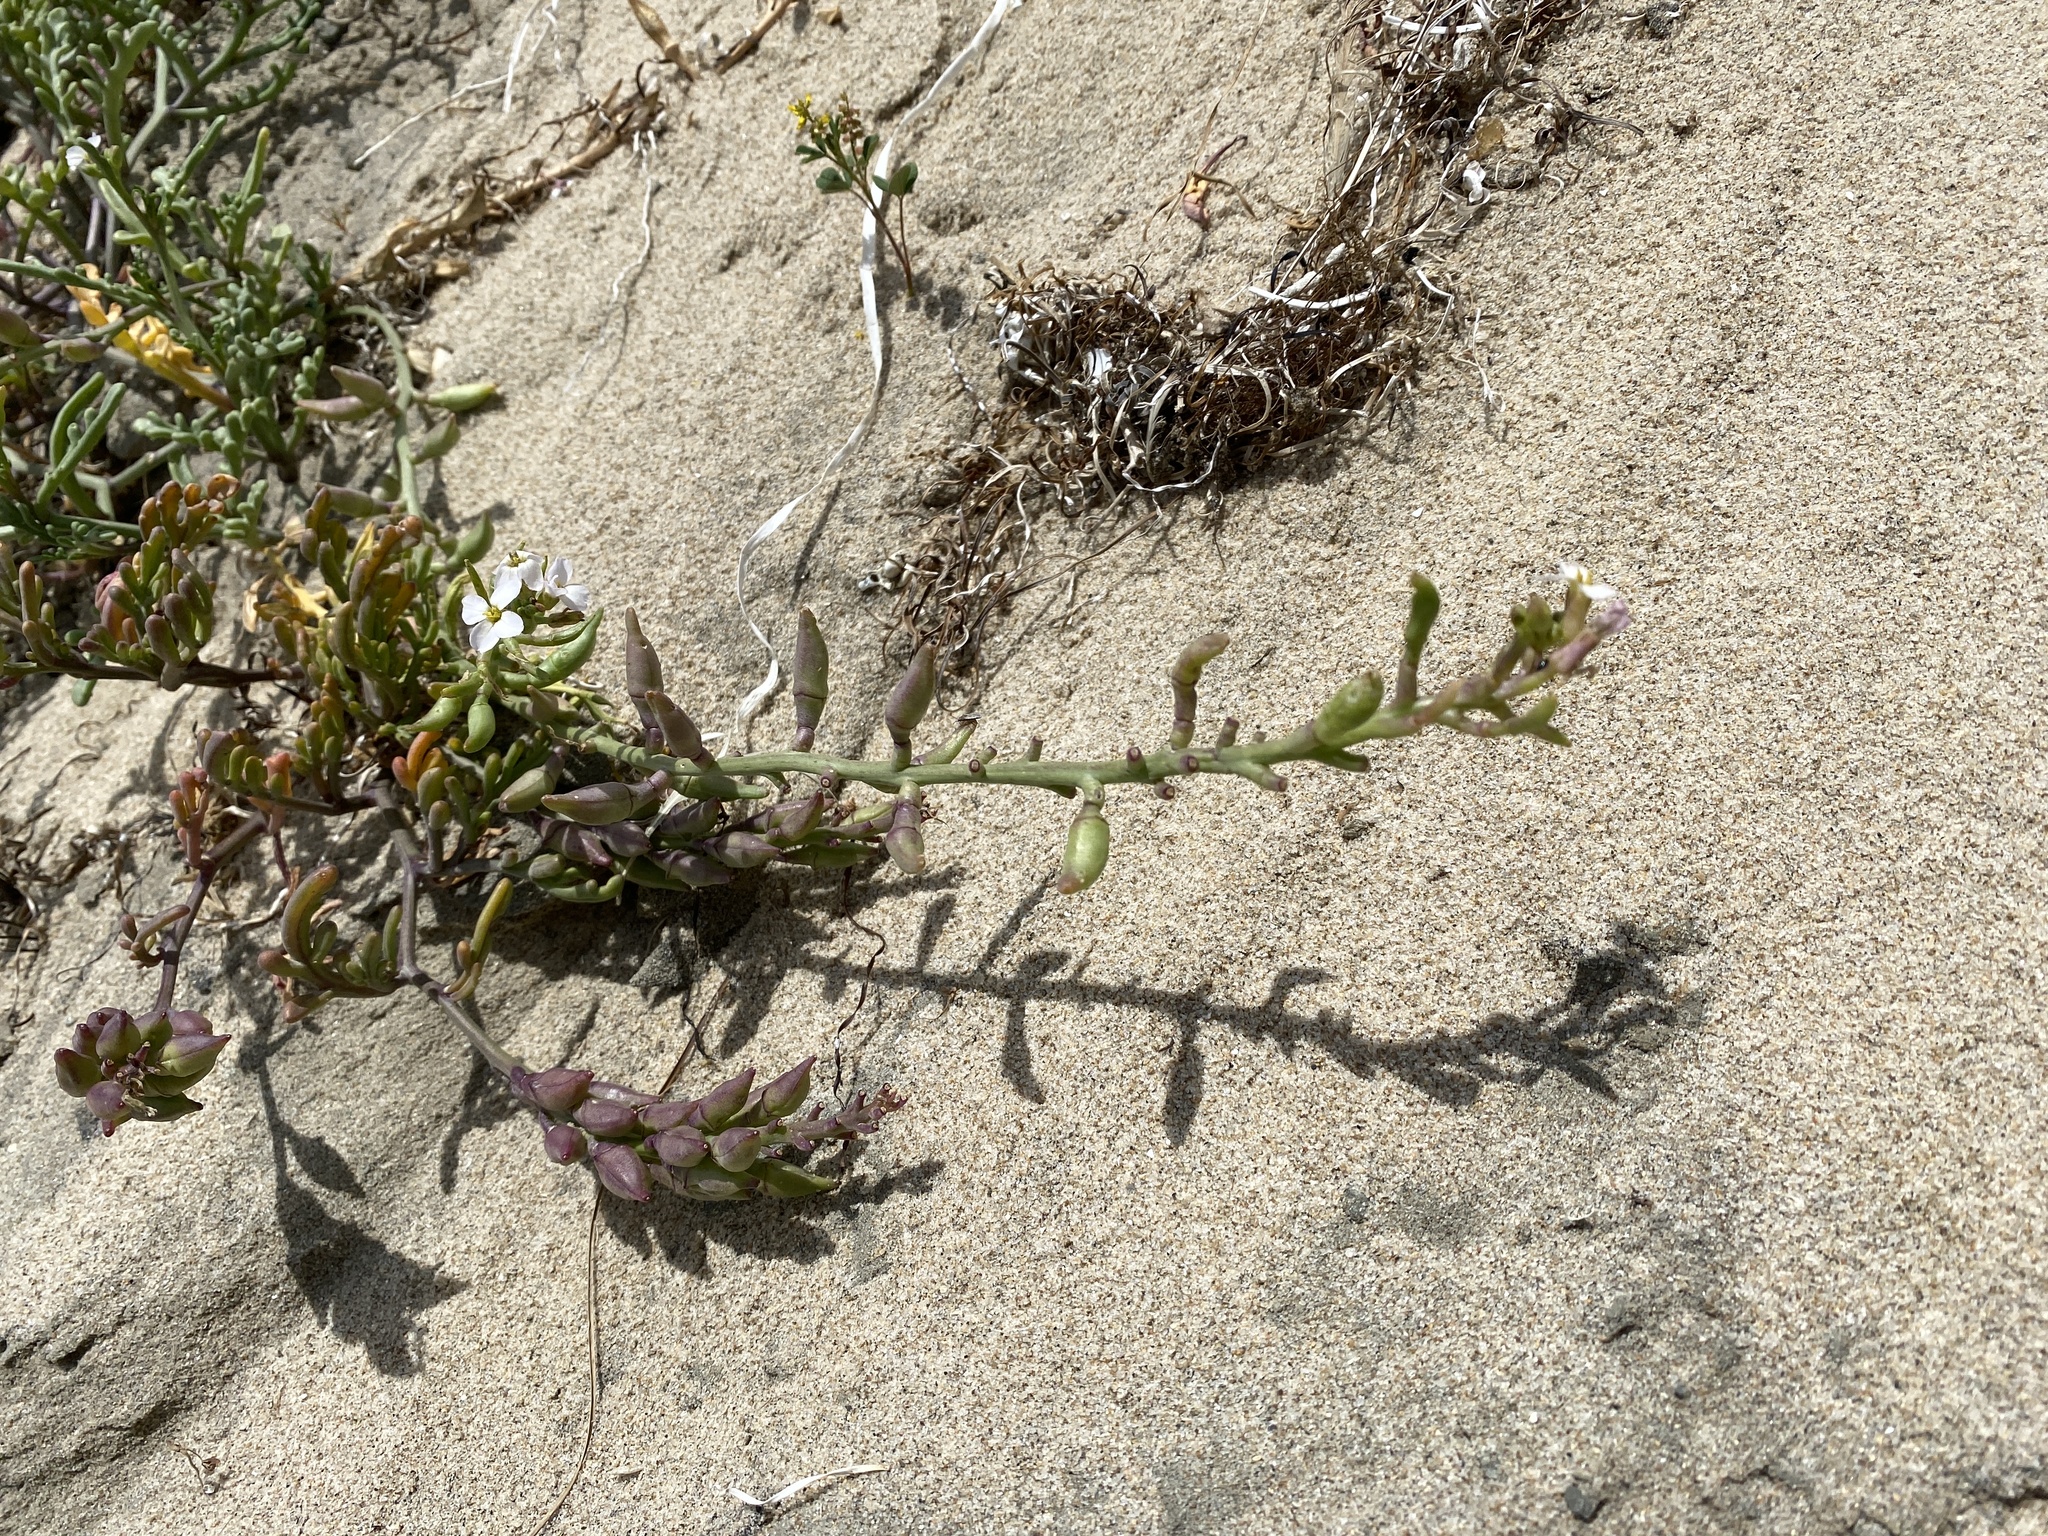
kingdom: Plantae
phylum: Tracheophyta
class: Magnoliopsida
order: Brassicales
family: Brassicaceae
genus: Cakile
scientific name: Cakile maritima
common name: Sea rocket
